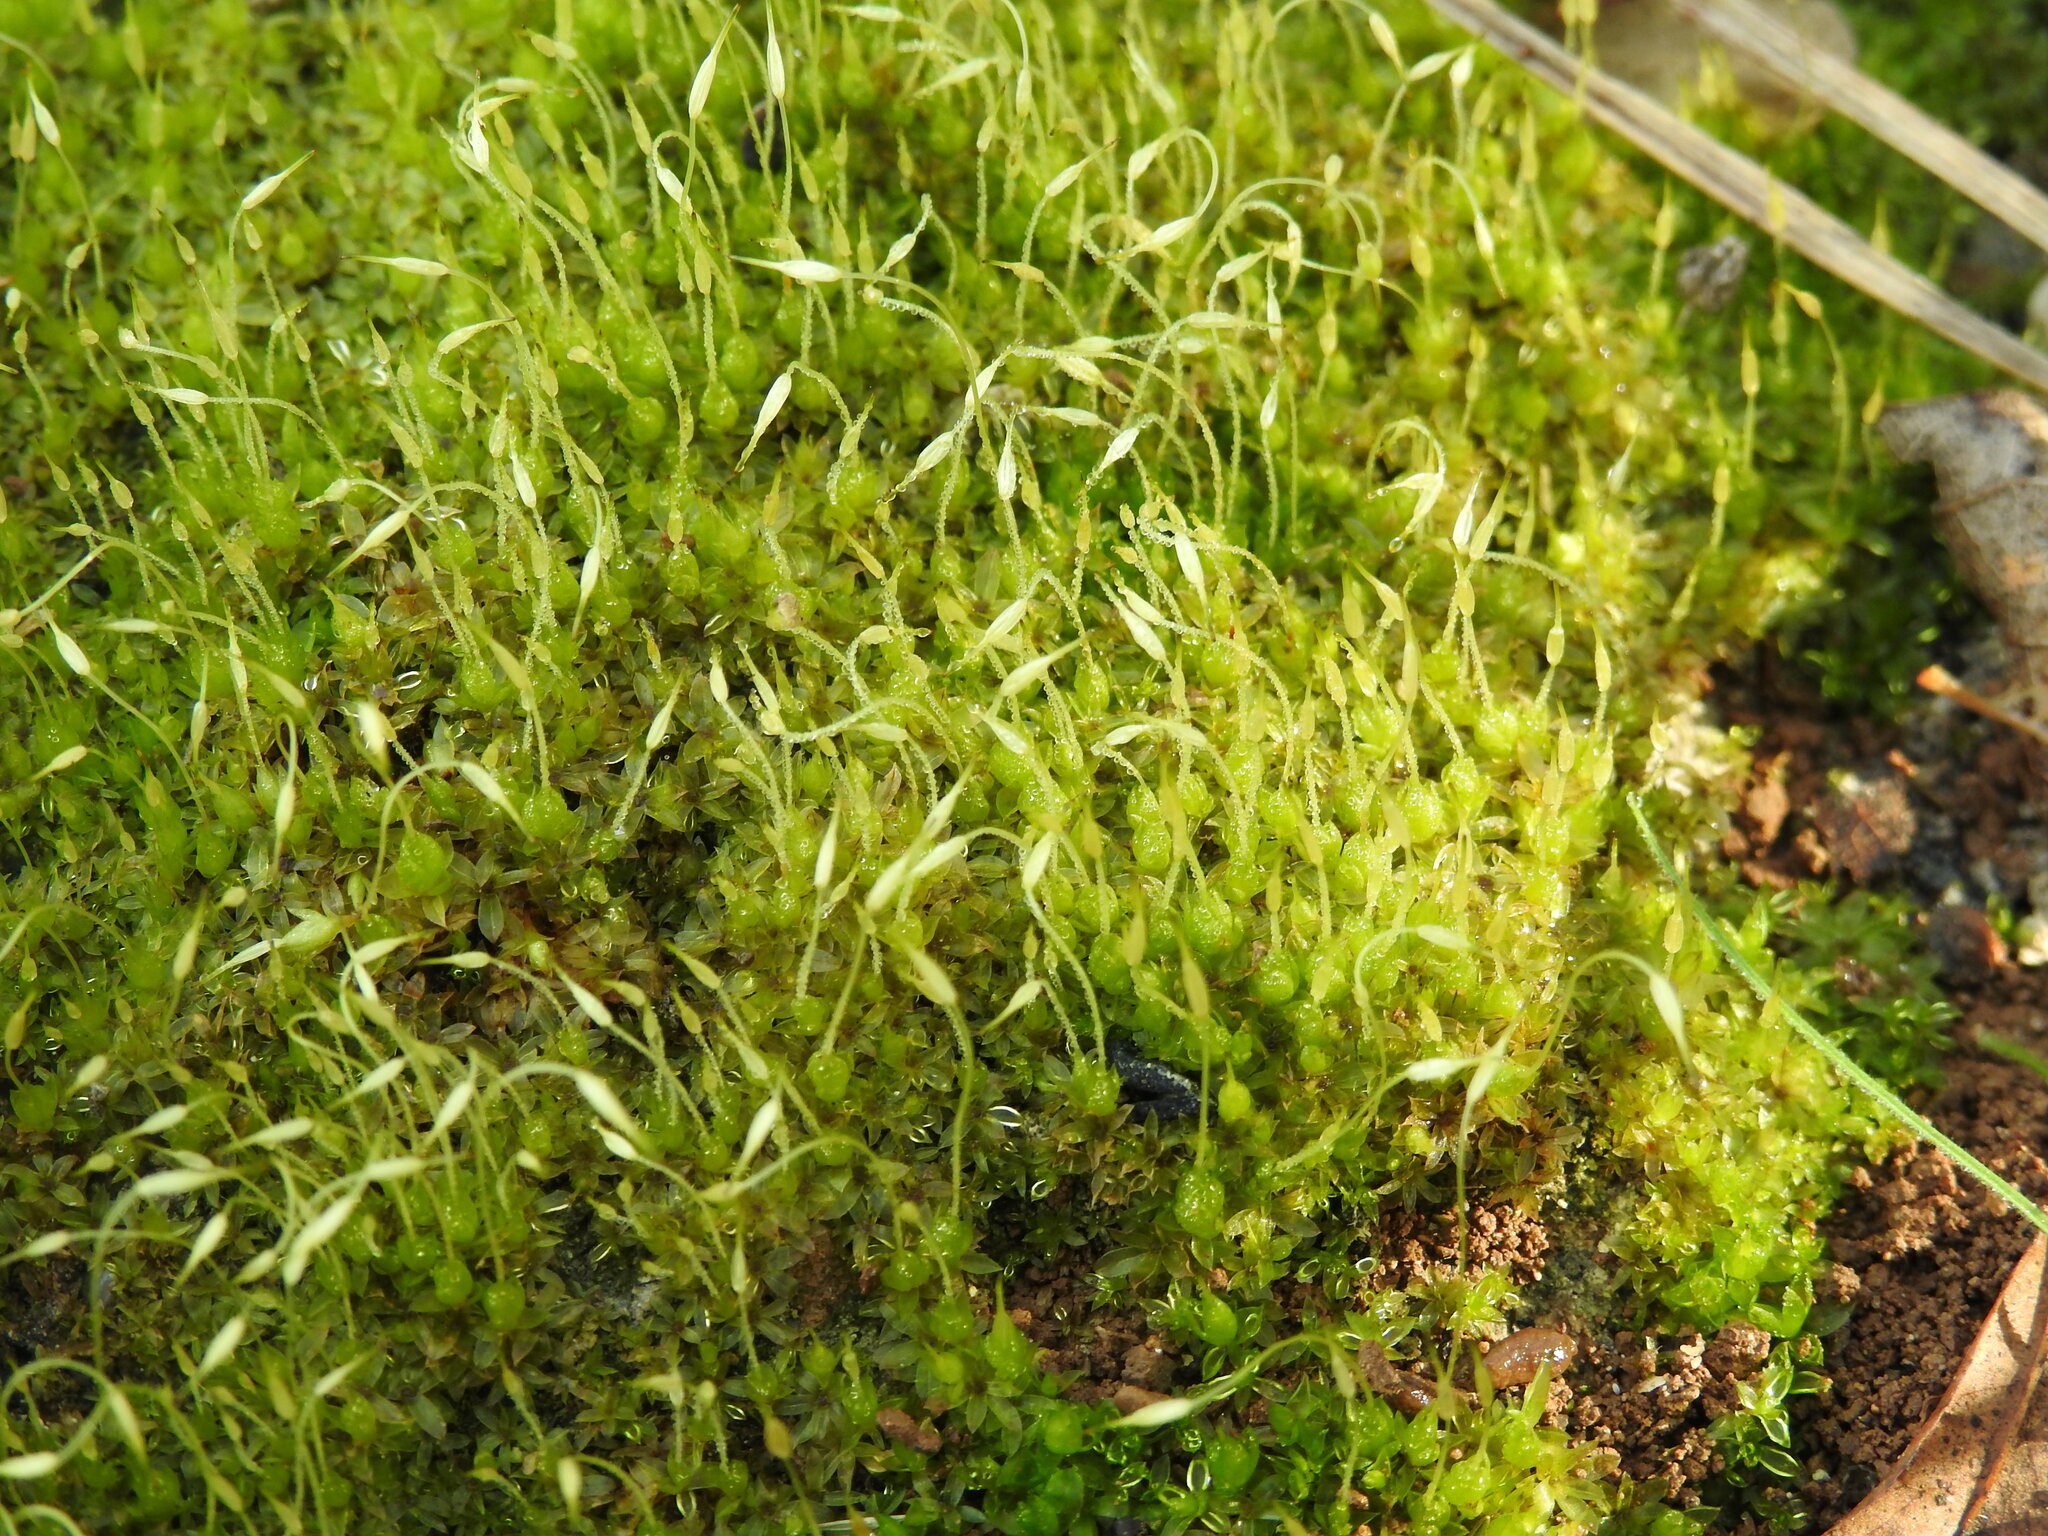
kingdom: Plantae
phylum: Bryophyta
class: Bryopsida
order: Funariales
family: Funariaceae
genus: Funaria
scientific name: Funaria hygrometrica
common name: Common cord moss
